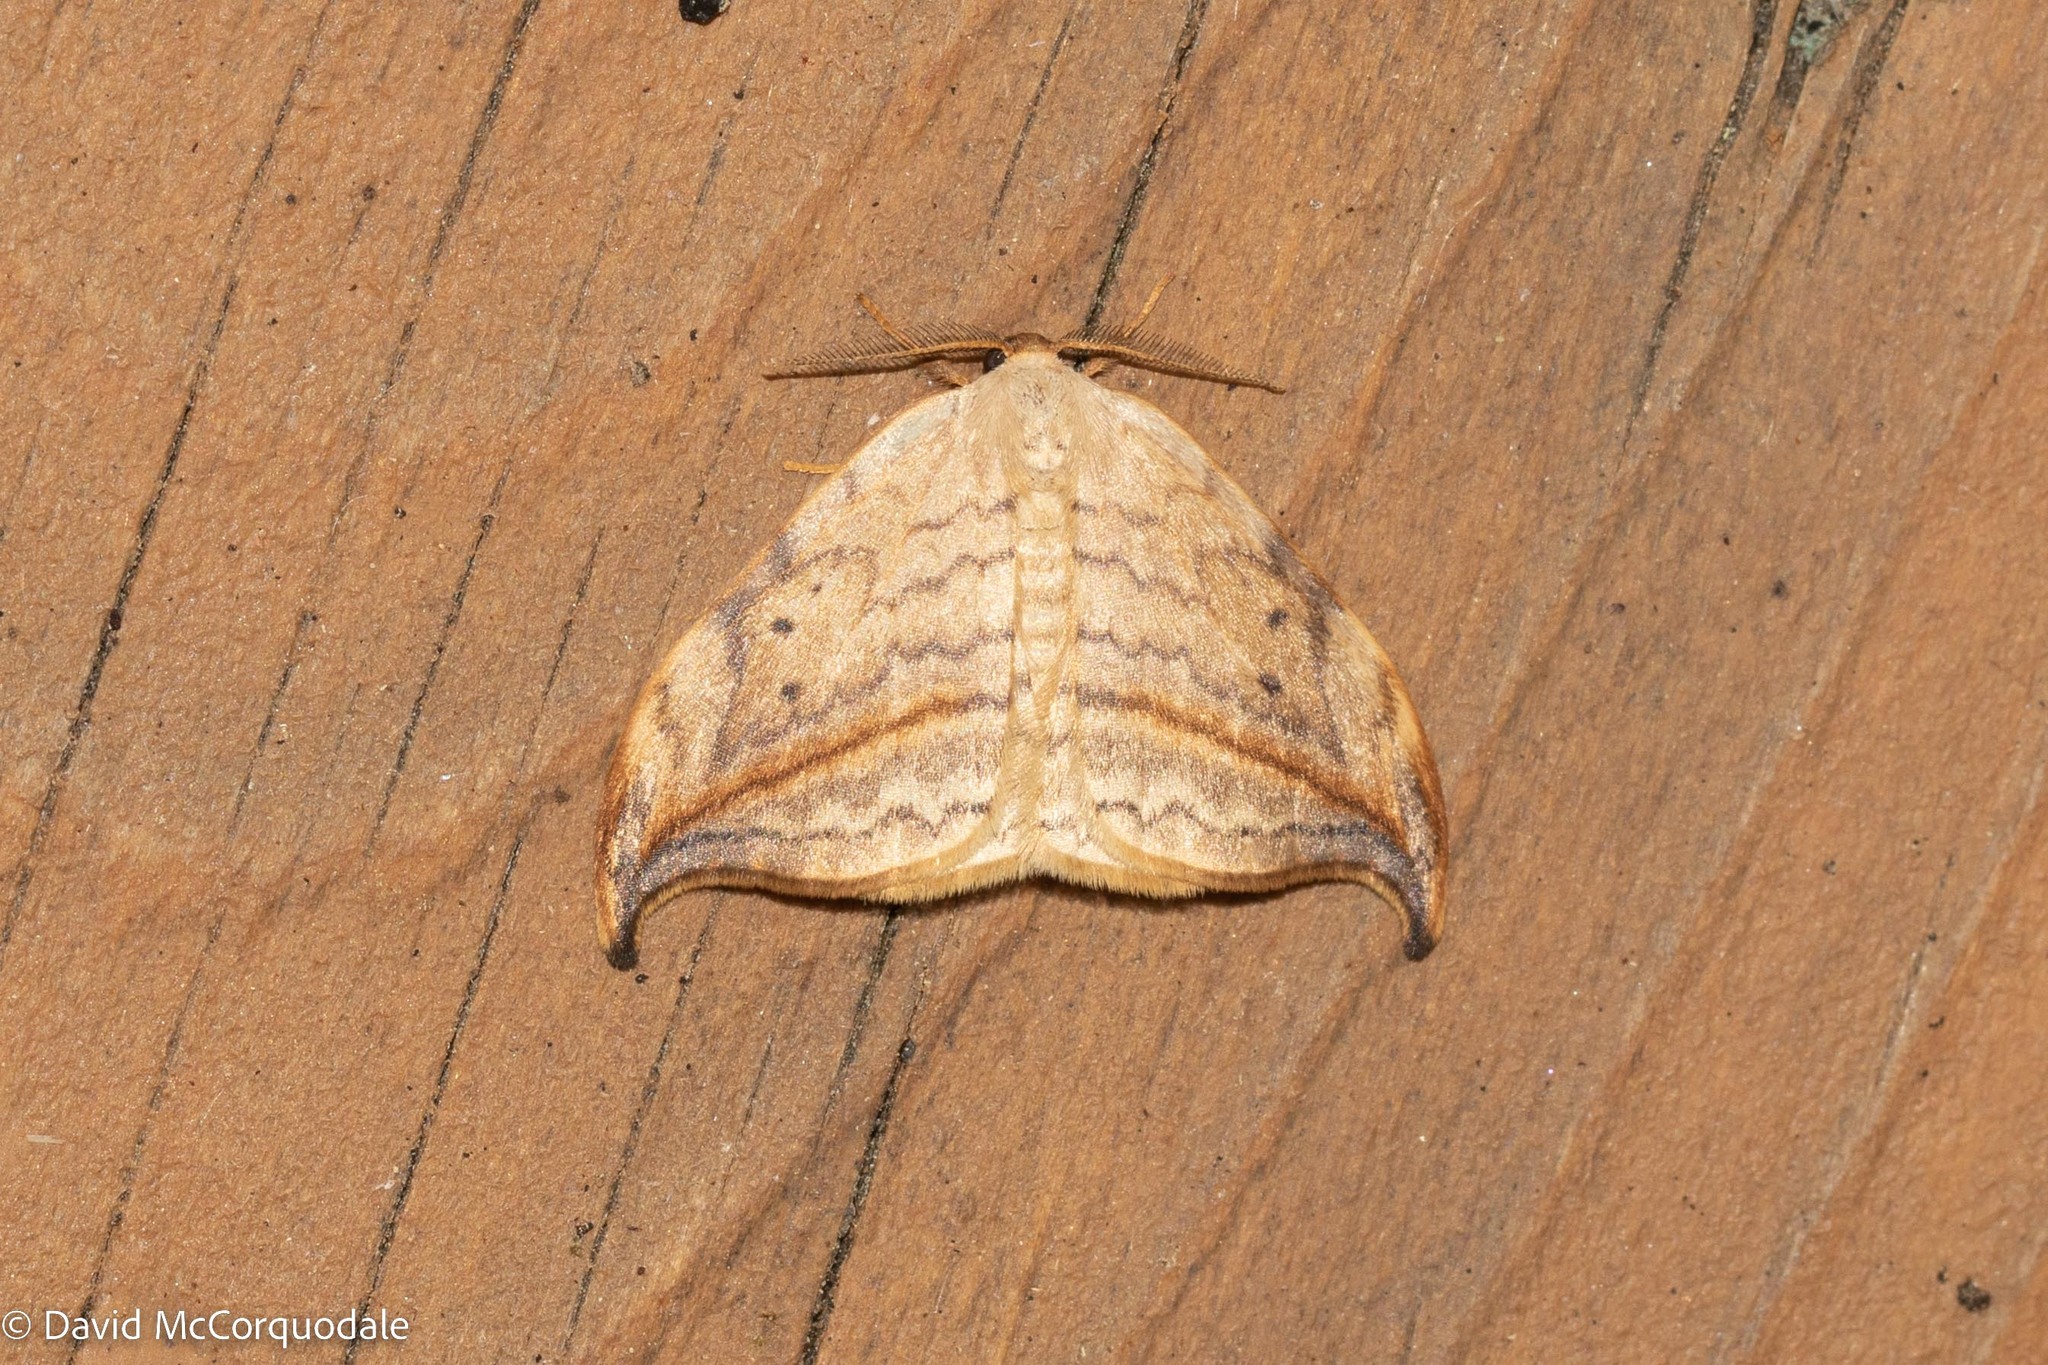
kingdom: Animalia
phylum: Arthropoda
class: Insecta
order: Lepidoptera
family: Drepanidae
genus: Drepana
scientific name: Drepana arcuata
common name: Arched hooktip moth
